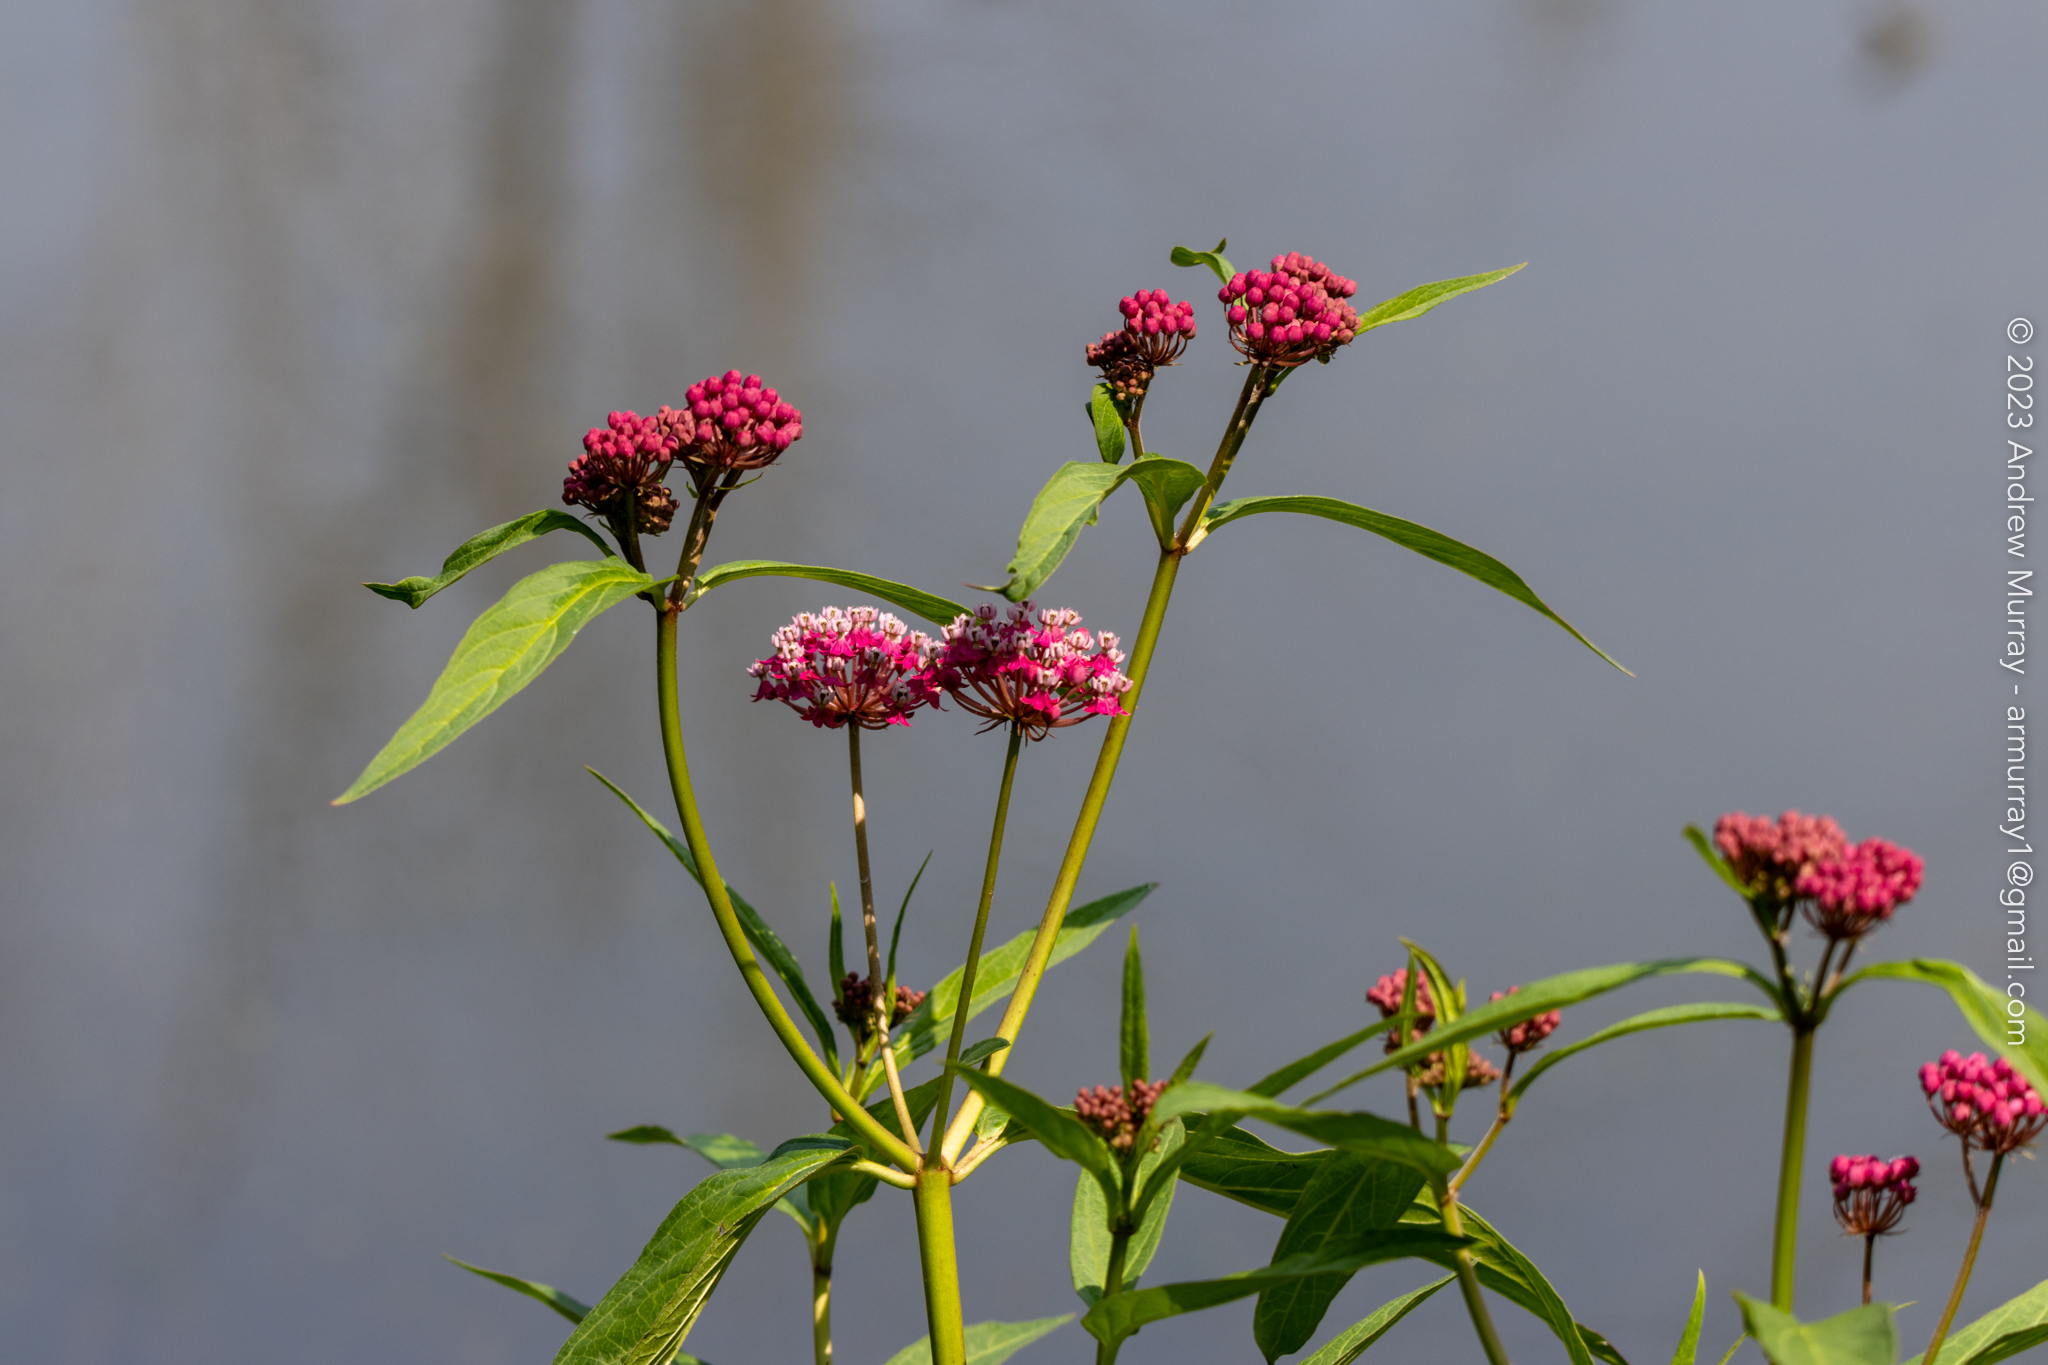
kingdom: Plantae
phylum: Tracheophyta
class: Magnoliopsida
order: Gentianales
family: Apocynaceae
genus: Asclepias
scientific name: Asclepias incarnata
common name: Swamp milkweed
